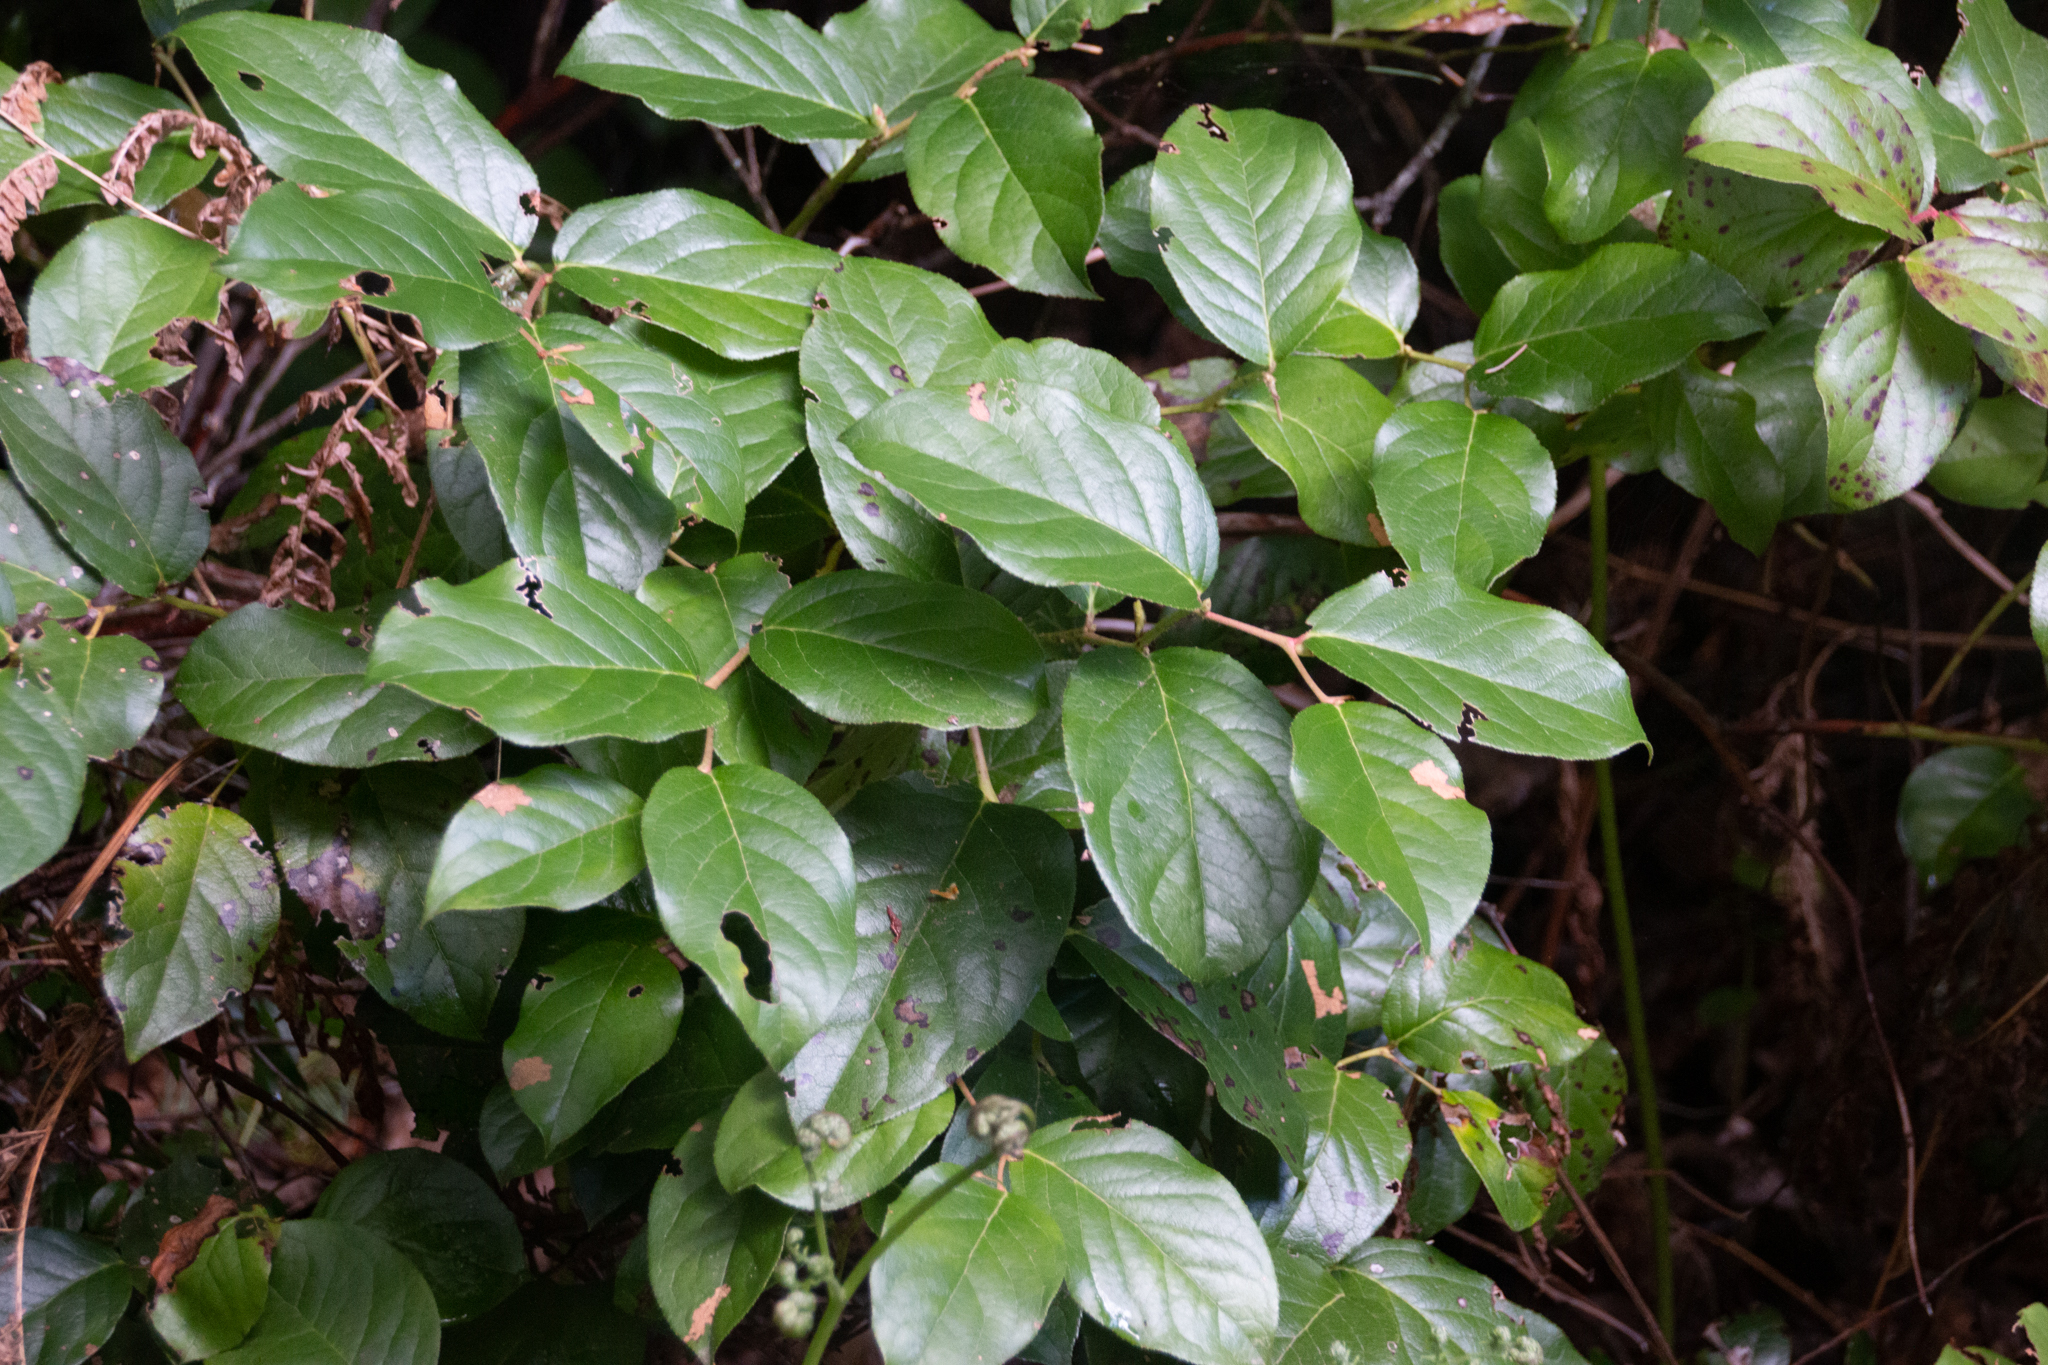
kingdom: Plantae
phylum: Tracheophyta
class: Magnoliopsida
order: Ericales
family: Ericaceae
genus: Gaultheria
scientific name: Gaultheria shallon
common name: Shallon
